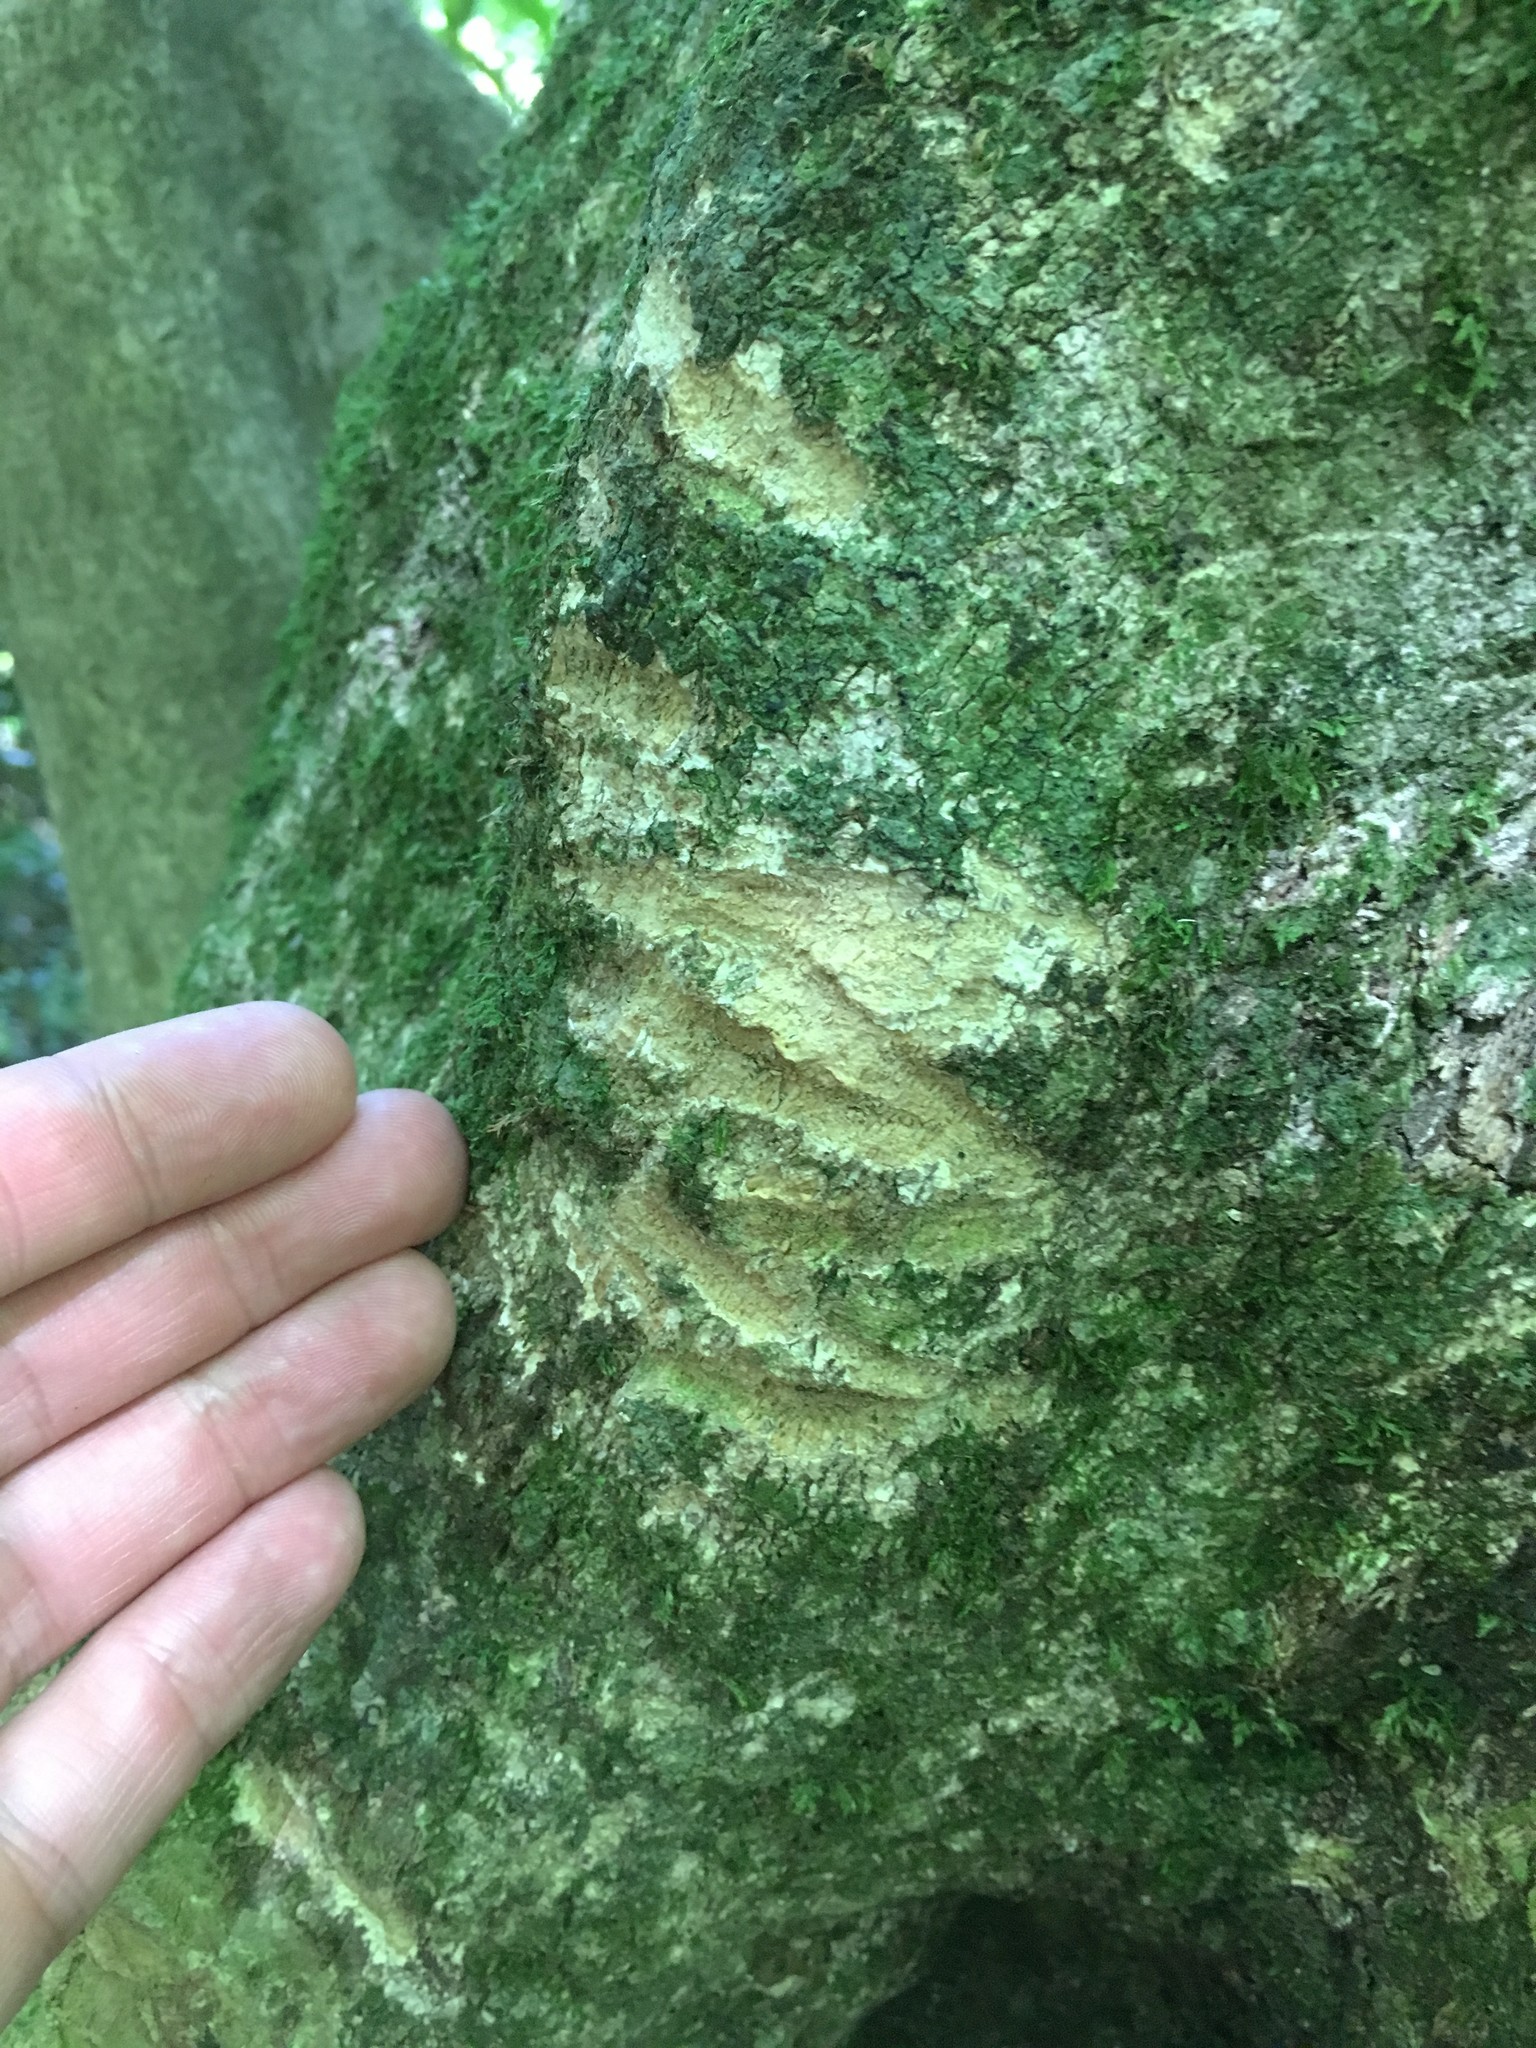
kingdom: Animalia
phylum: Chordata
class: Mammalia
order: Diprotodontia
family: Phalangeridae
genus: Trichosurus
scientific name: Trichosurus vulpecula
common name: Common brushtail
